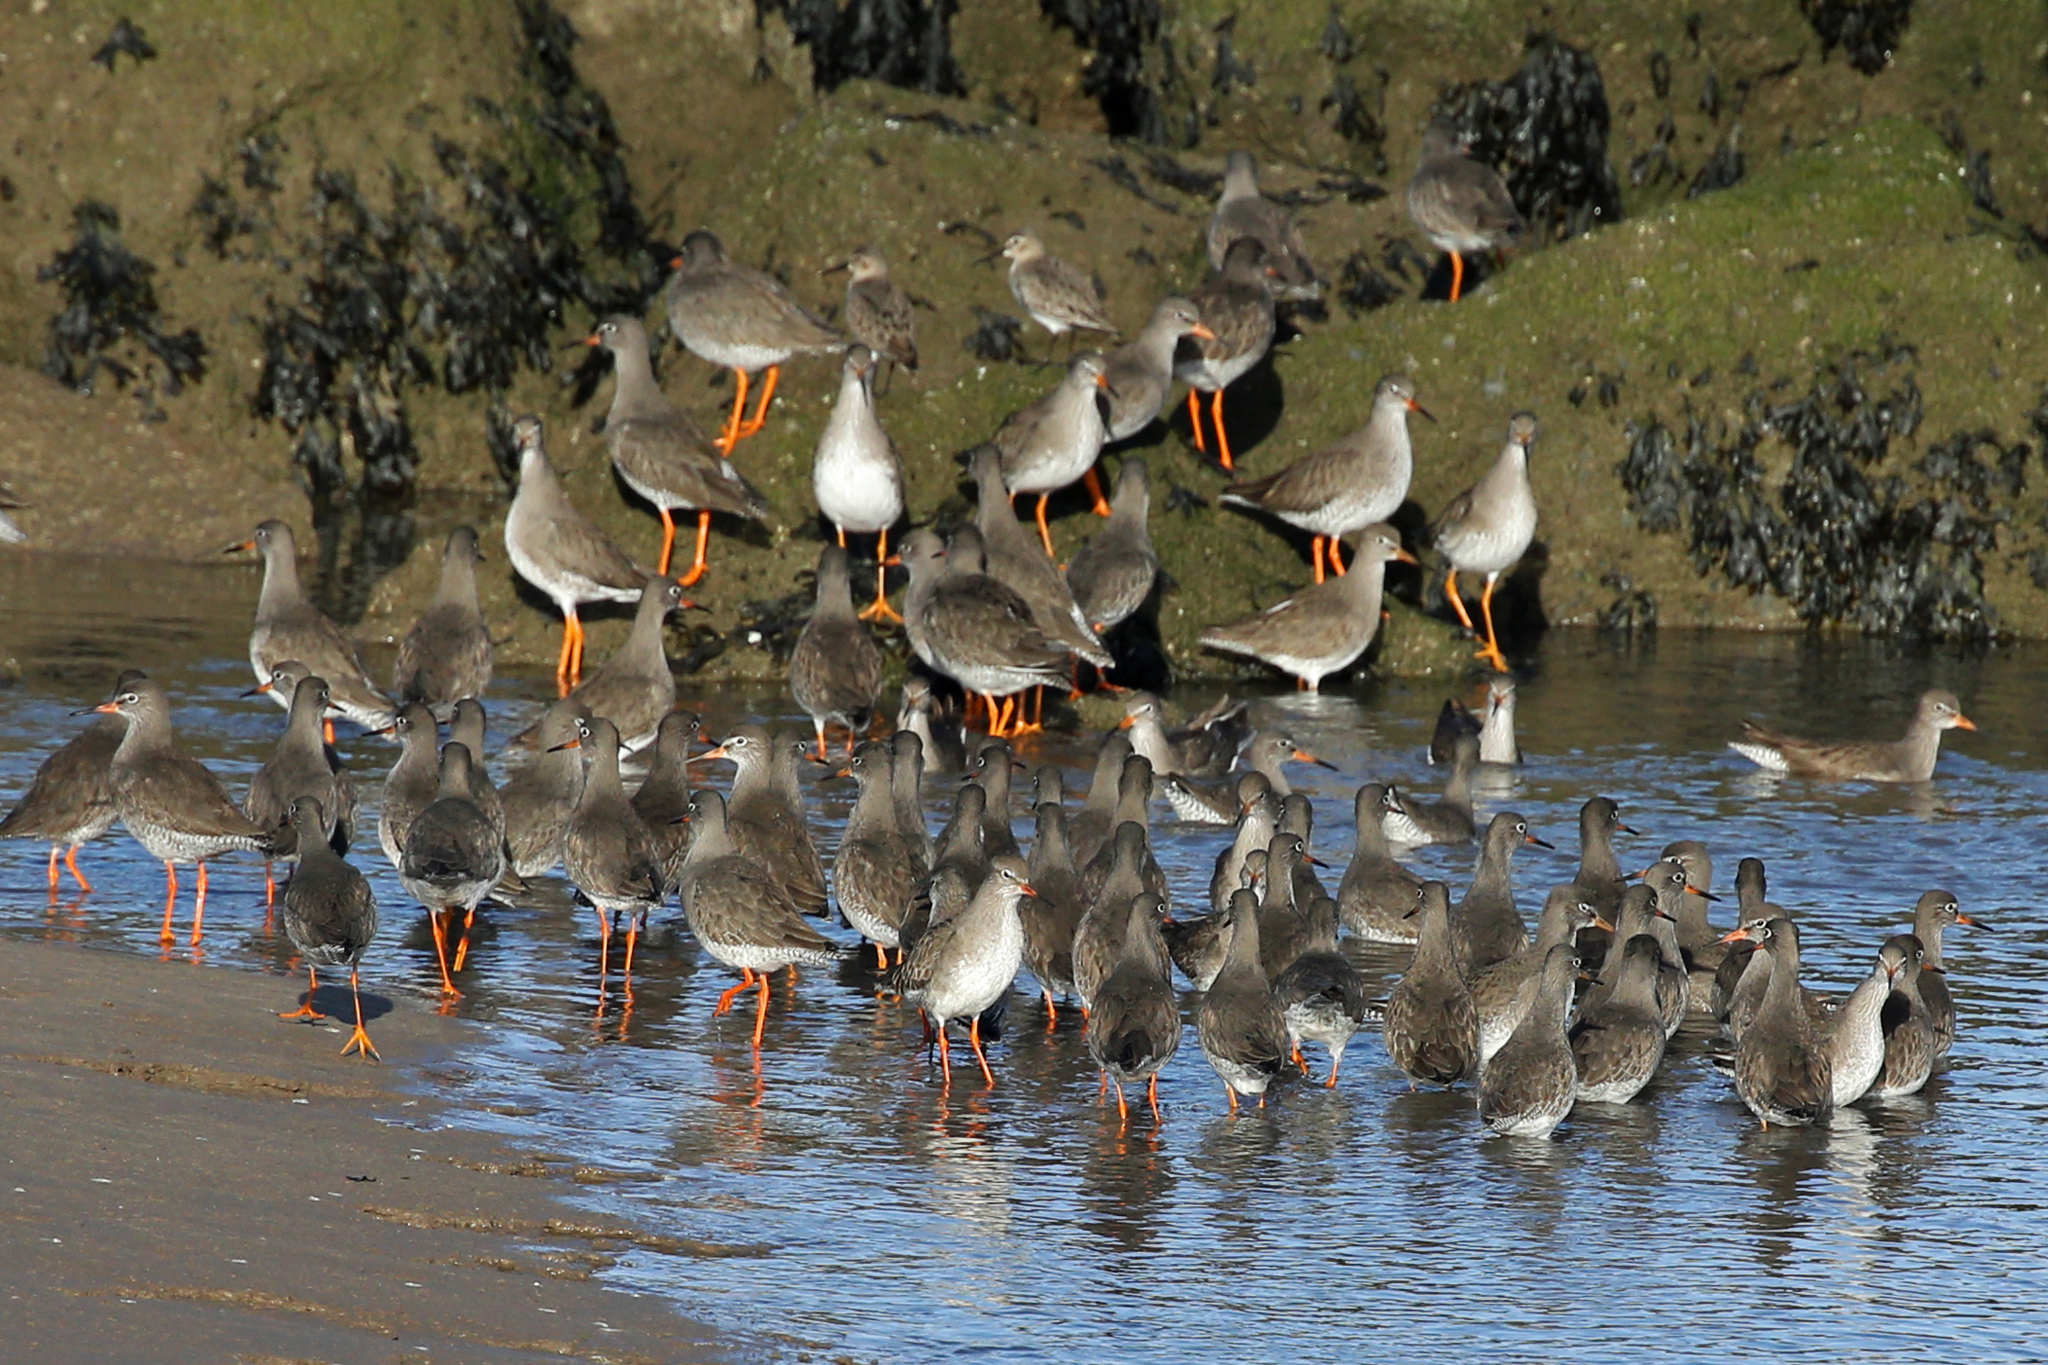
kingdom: Animalia
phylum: Chordata
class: Aves
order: Charadriiformes
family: Scolopacidae
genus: Tringa
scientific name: Tringa totanus
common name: Common redshank
